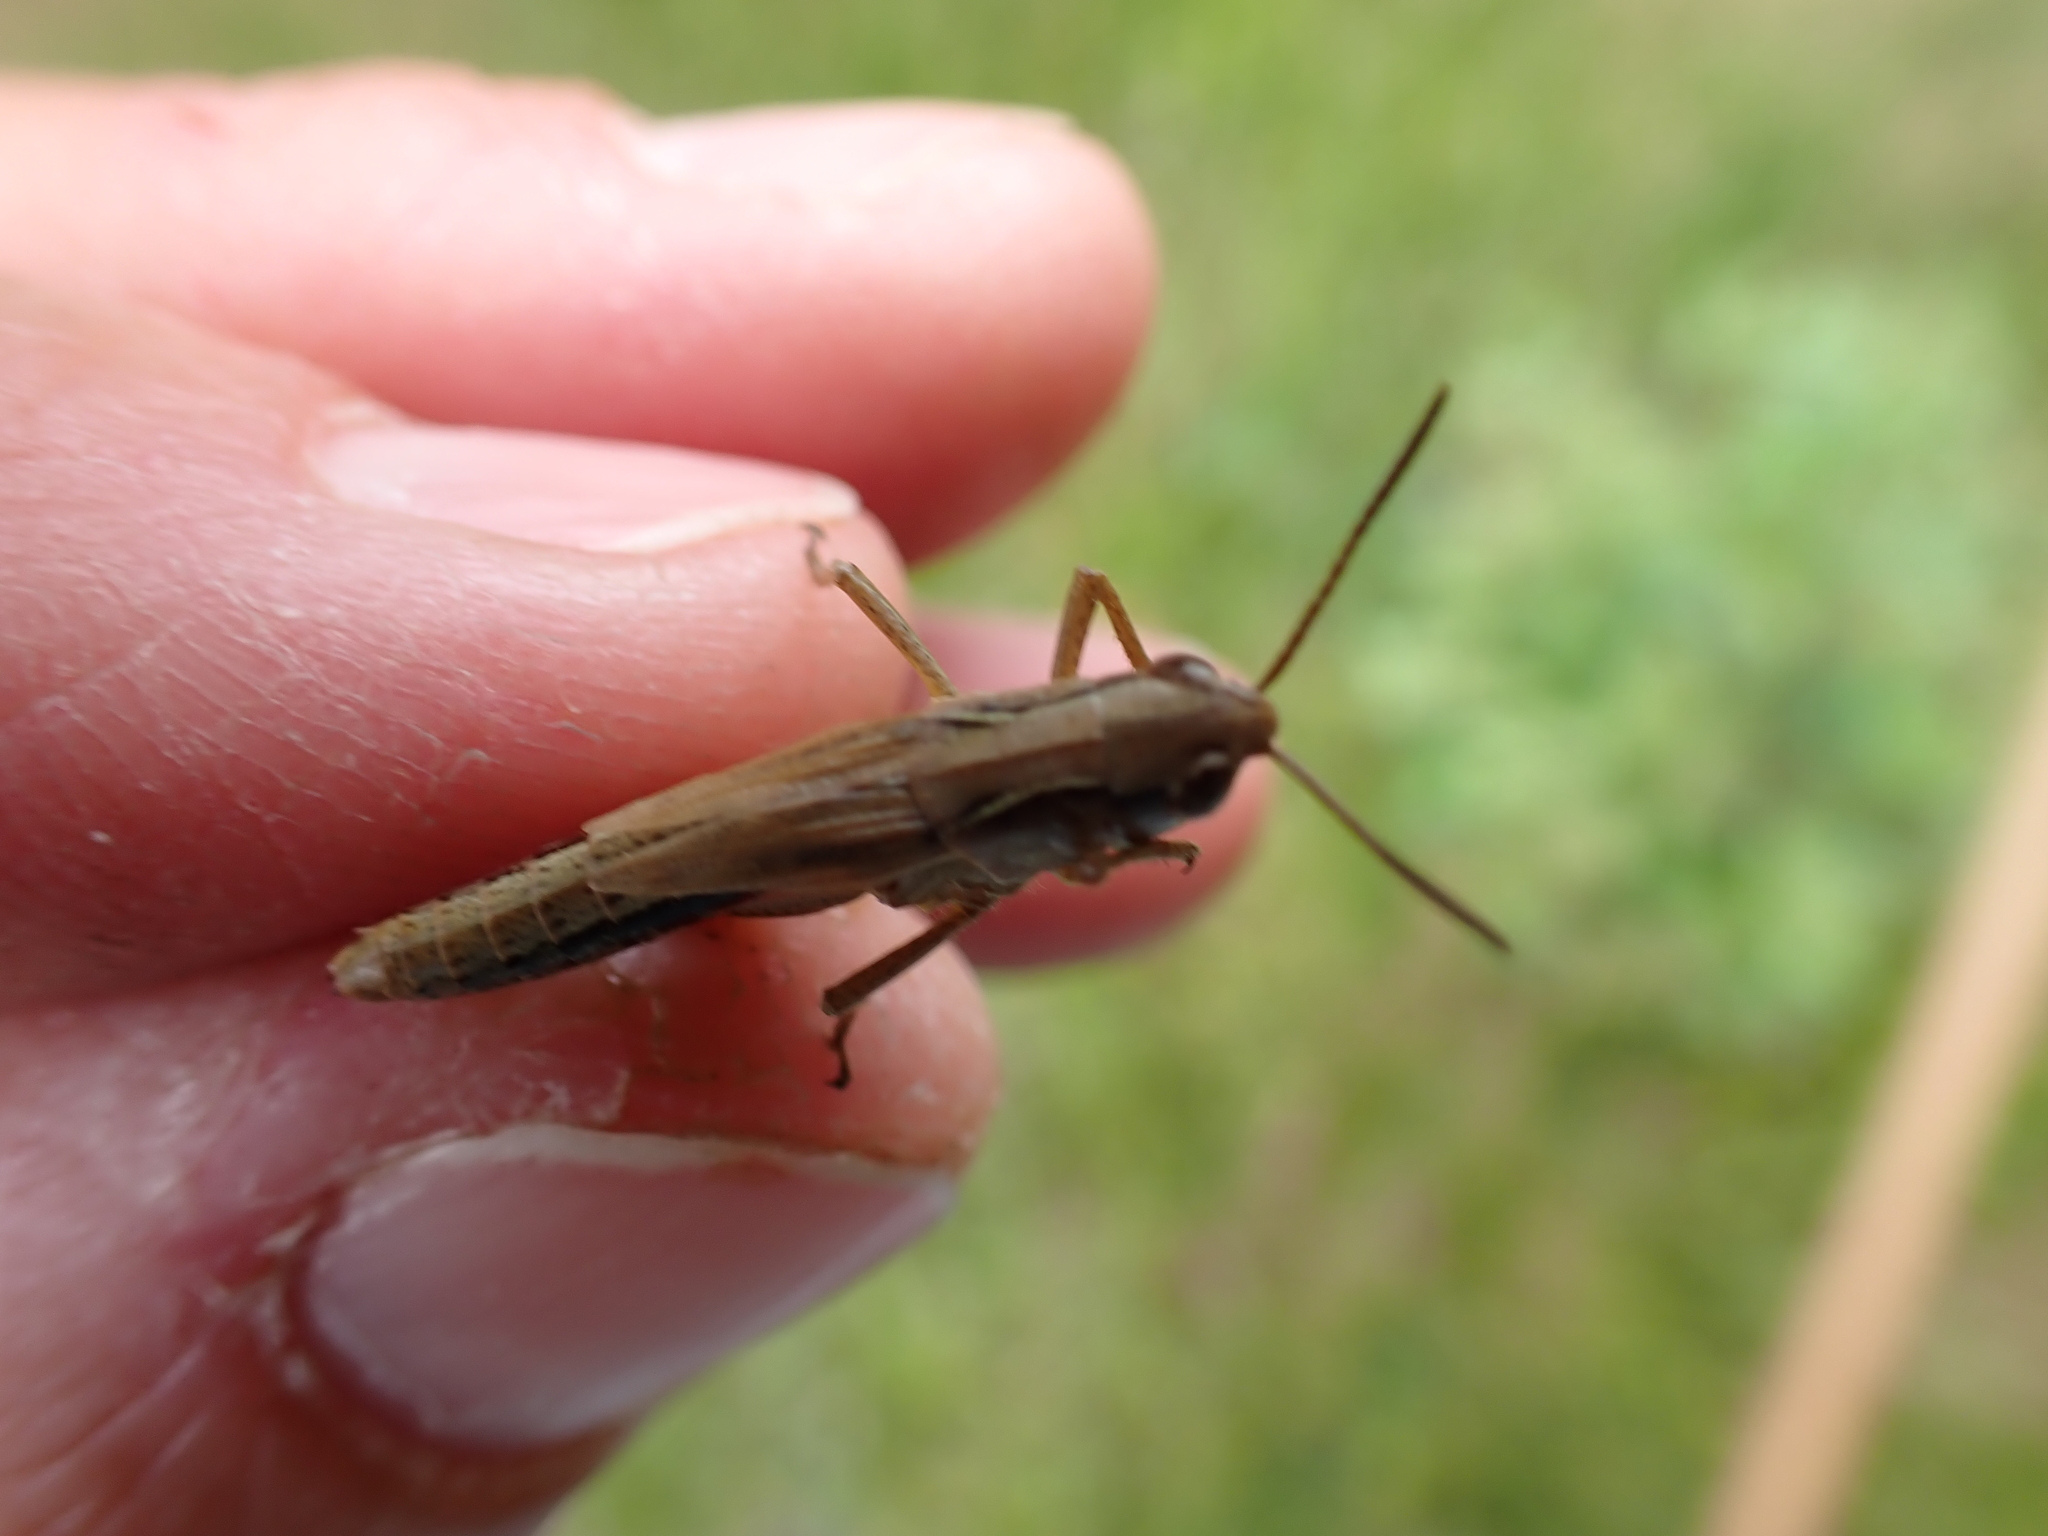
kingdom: Animalia
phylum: Arthropoda
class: Insecta
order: Orthoptera
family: Acrididae
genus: Pseudochorthippus
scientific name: Pseudochorthippus parallelus
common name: Meadow grasshopper
